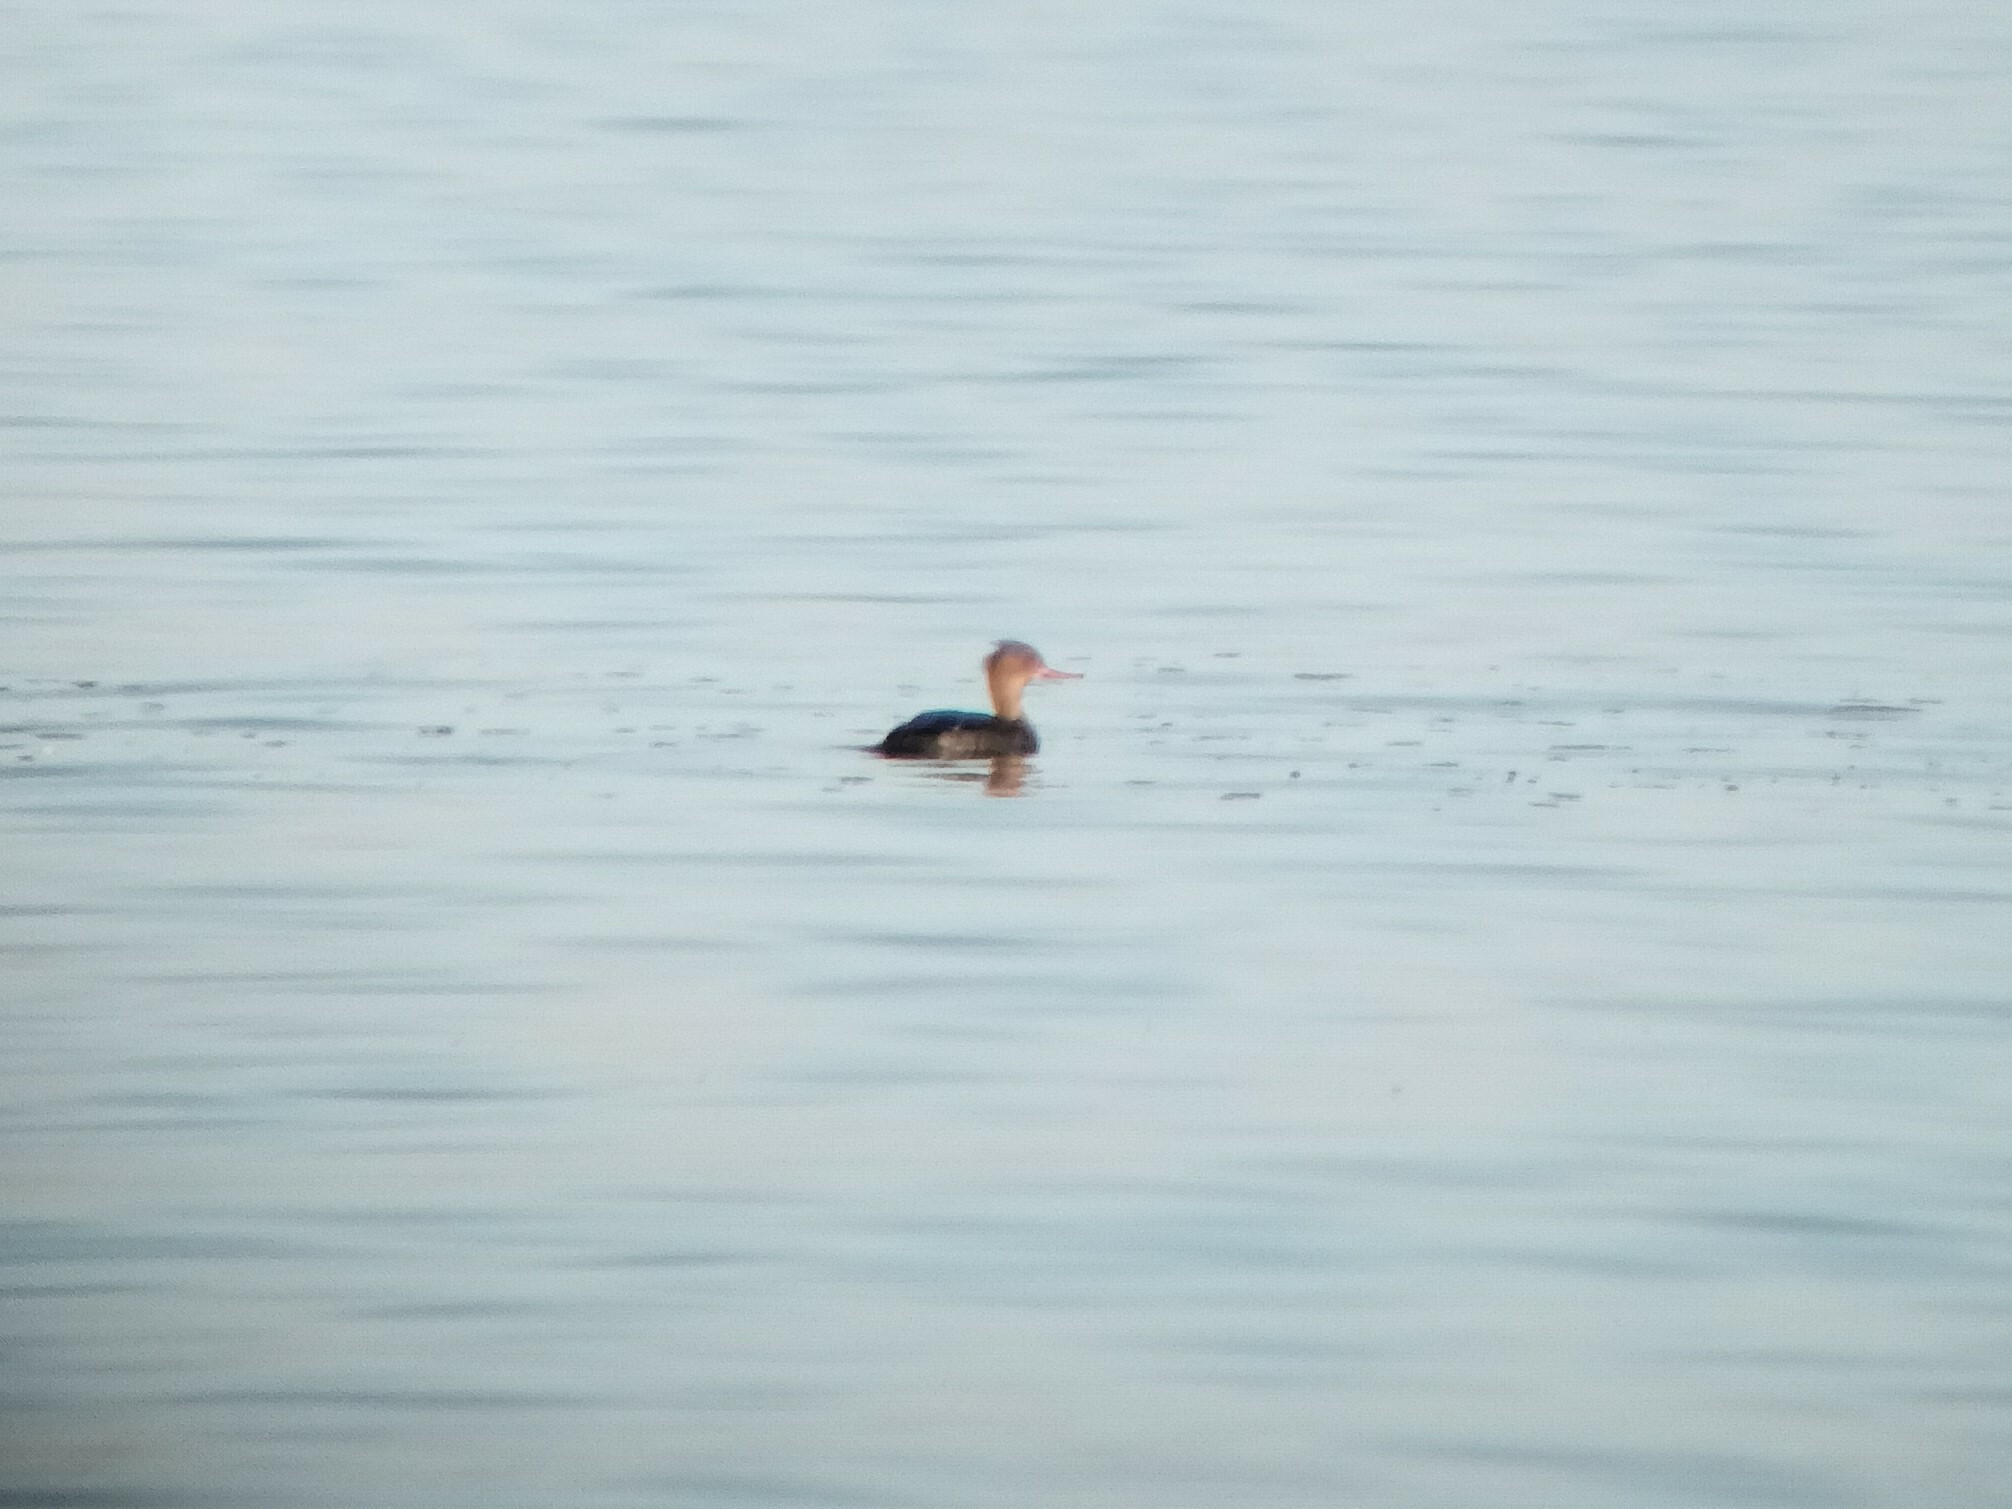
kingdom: Animalia
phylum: Chordata
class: Aves
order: Anseriformes
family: Anatidae
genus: Mergus
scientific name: Mergus serrator
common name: Red-breasted merganser
